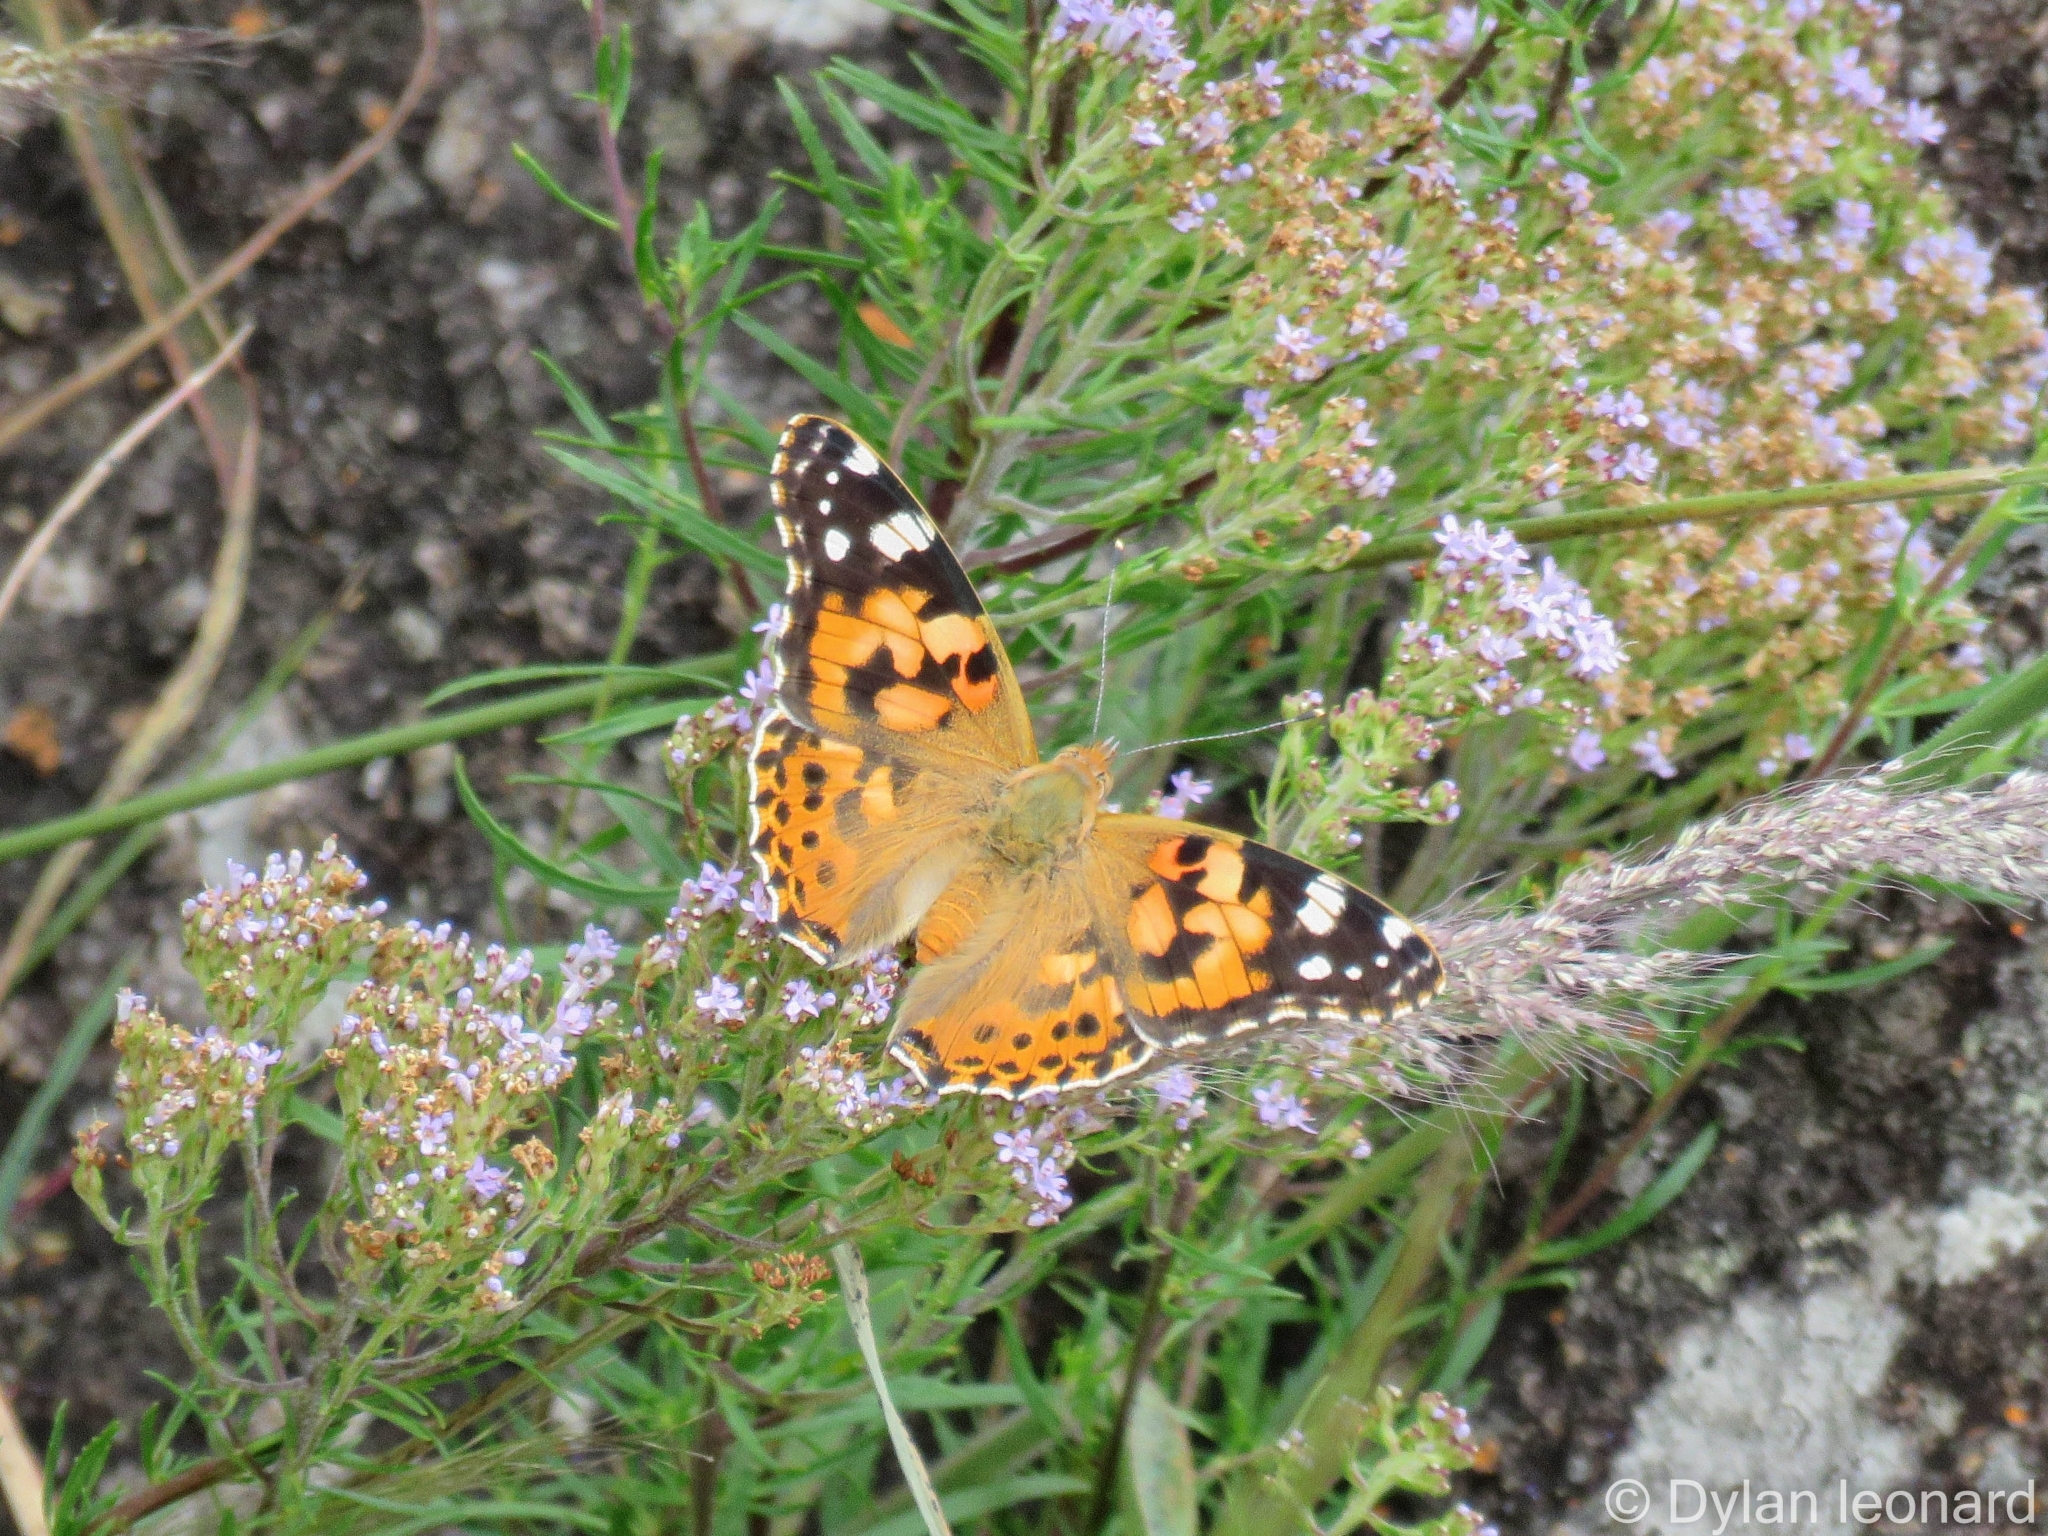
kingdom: Animalia
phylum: Arthropoda
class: Insecta
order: Lepidoptera
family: Nymphalidae
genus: Vanessa
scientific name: Vanessa cardui
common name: Painted lady
